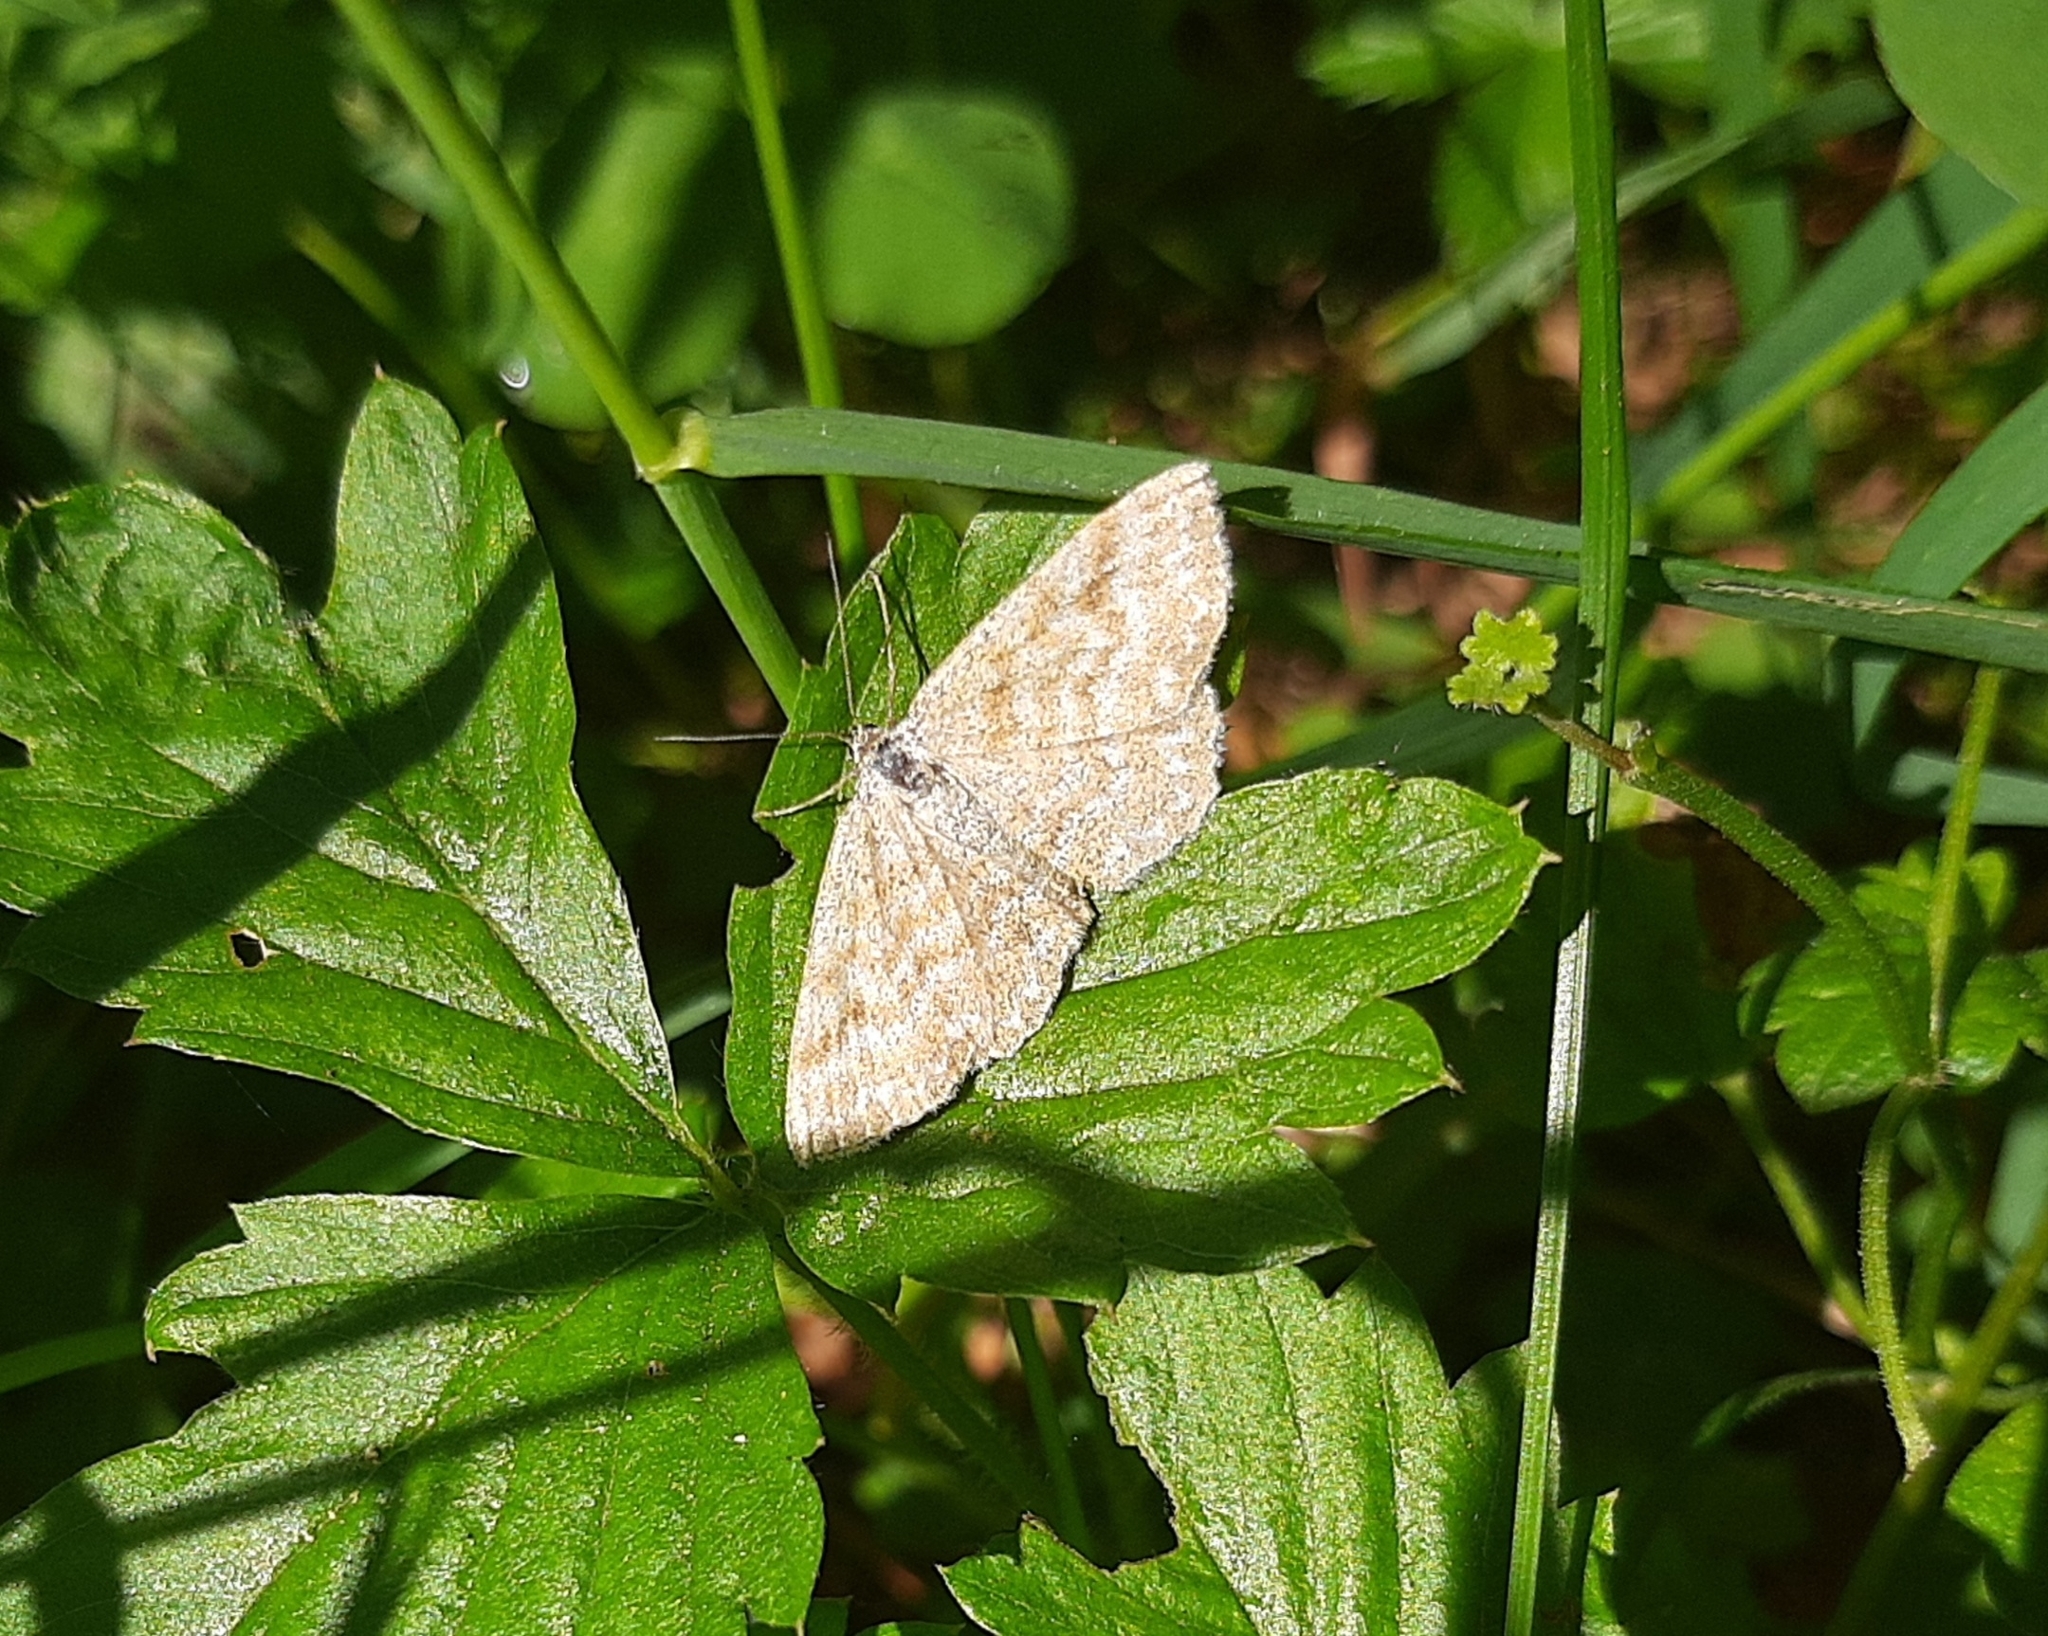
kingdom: Animalia
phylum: Arthropoda
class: Insecta
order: Lepidoptera
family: Geometridae
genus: Scopula
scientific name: Scopula immorata
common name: Lewes wave
